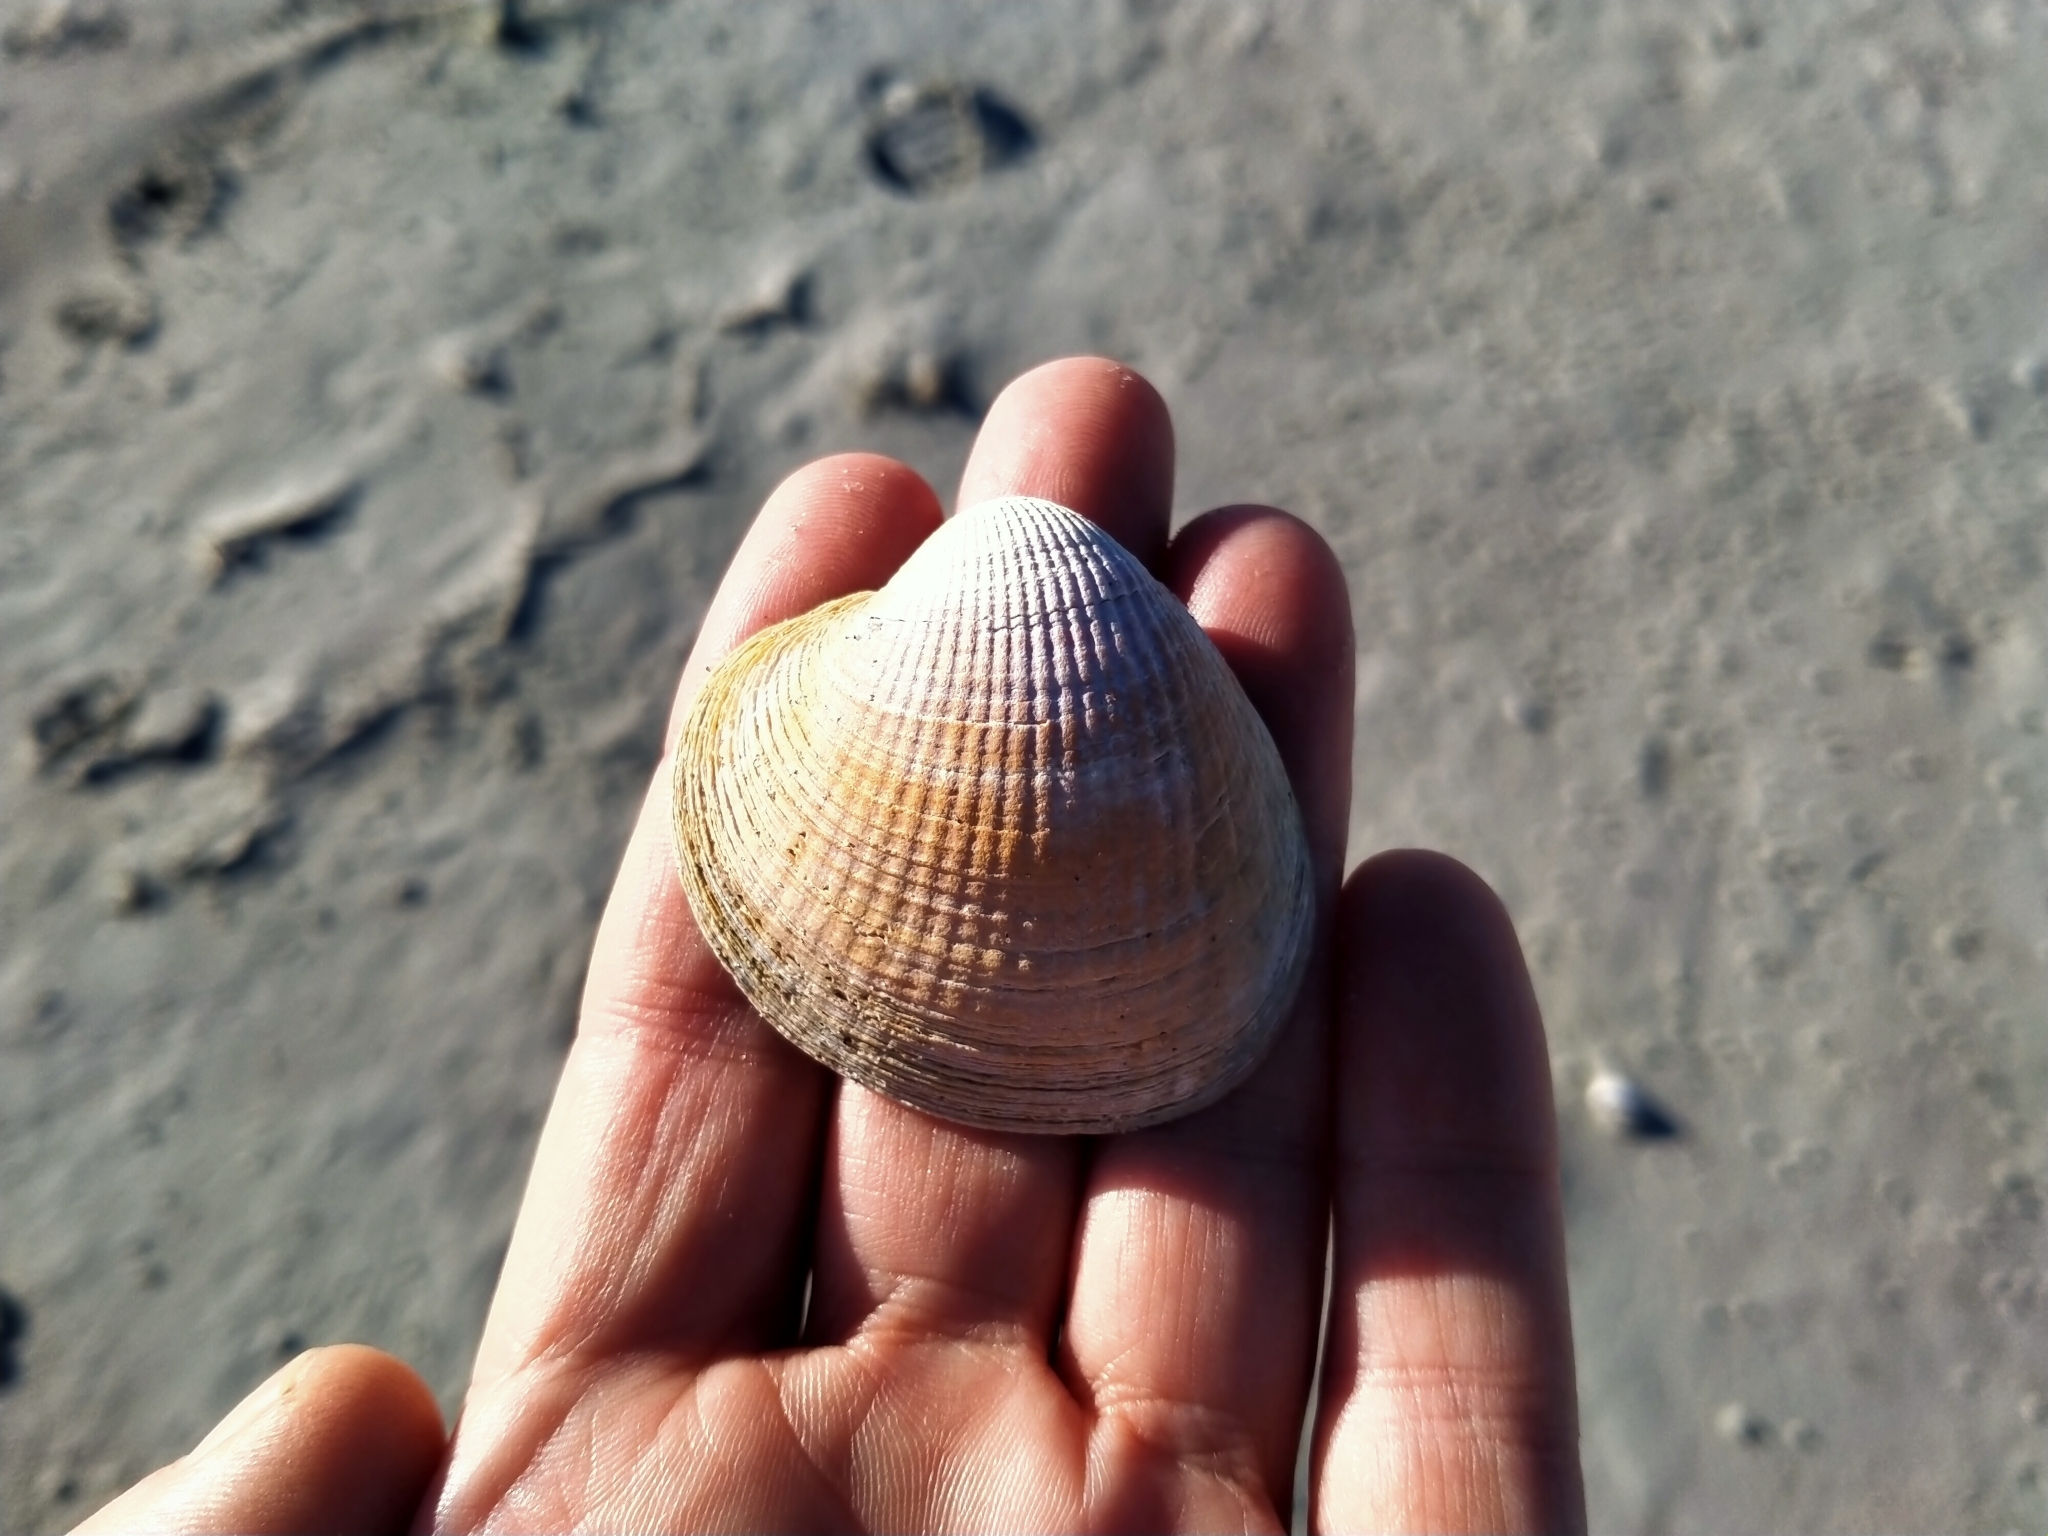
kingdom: Animalia
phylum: Mollusca
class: Bivalvia
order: Venerida
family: Veneridae
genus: Austrovenus
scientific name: Austrovenus stutchburyi
